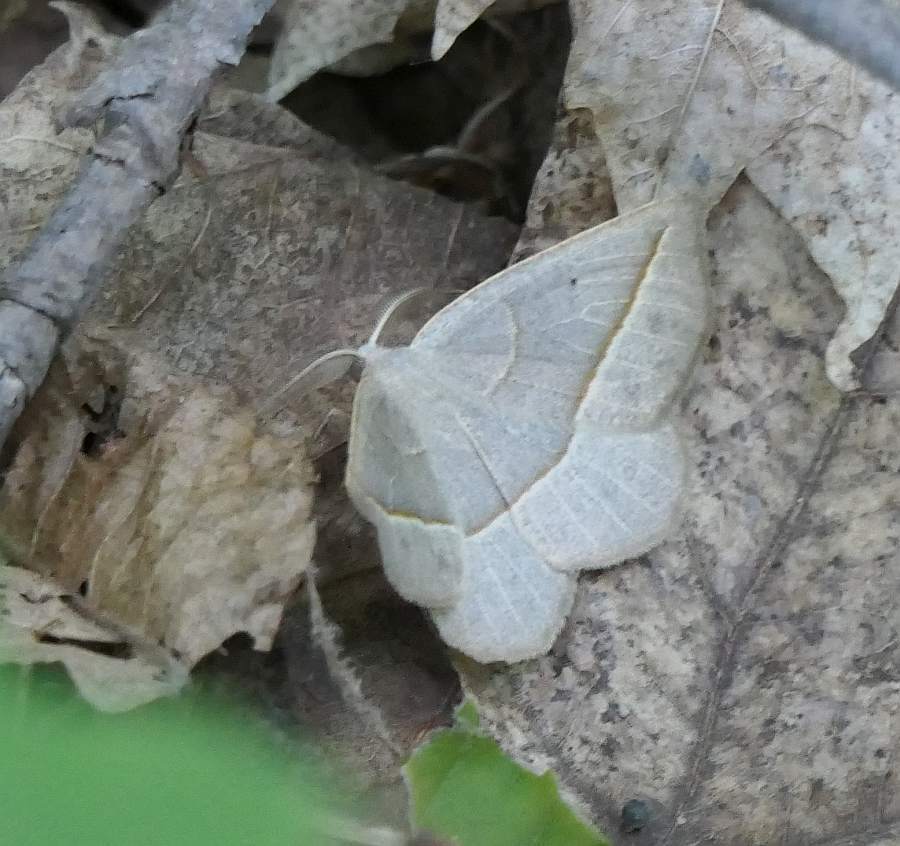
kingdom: Animalia
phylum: Arthropoda
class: Insecta
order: Lepidoptera
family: Geometridae
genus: Eusarca
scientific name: Eusarca confusaria
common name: Confused eusarca
